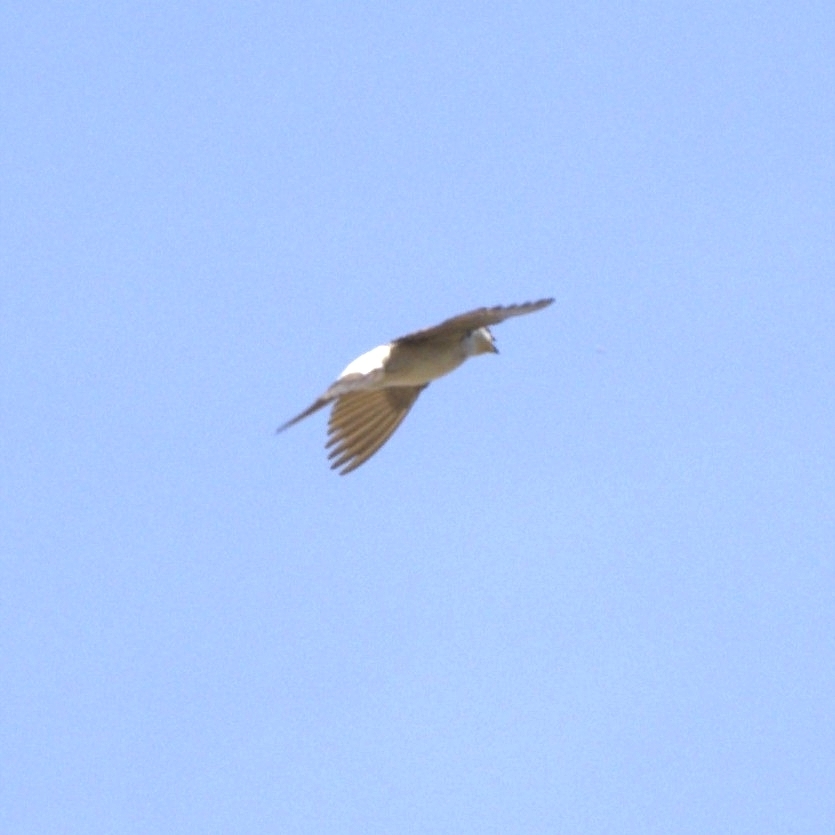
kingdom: Animalia
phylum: Chordata
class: Aves
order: Passeriformes
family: Hirundinidae
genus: Delichon
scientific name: Delichon urbicum
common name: Common house martin
